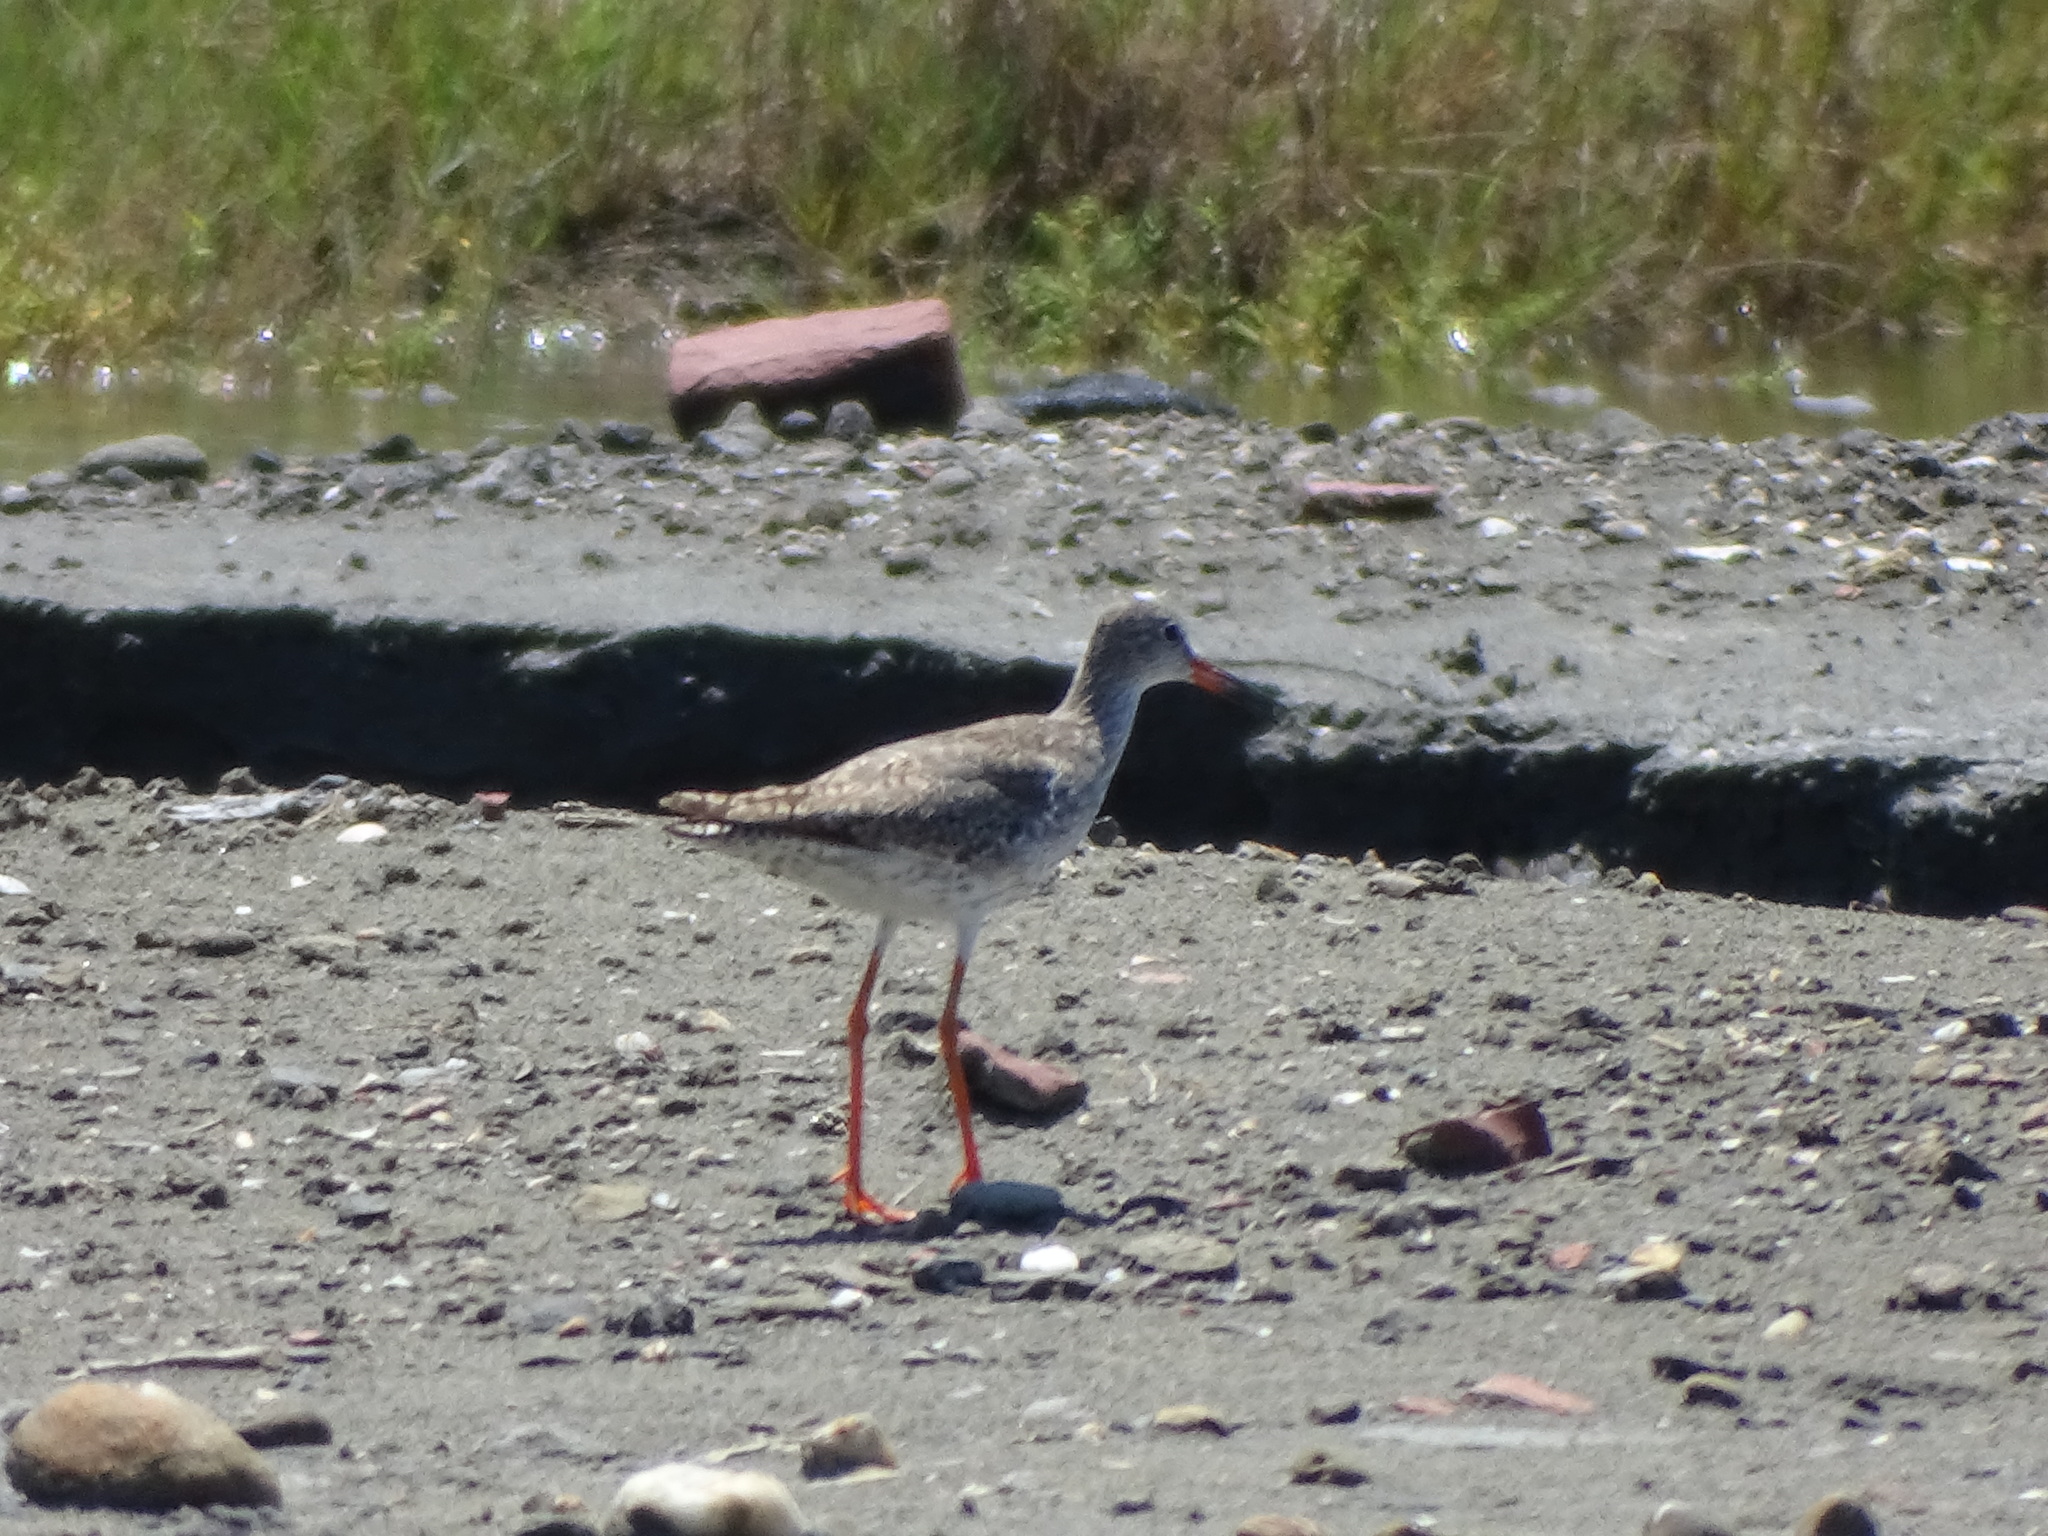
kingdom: Animalia
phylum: Chordata
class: Aves
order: Charadriiformes
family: Scolopacidae
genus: Tringa
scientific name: Tringa totanus
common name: Common redshank
